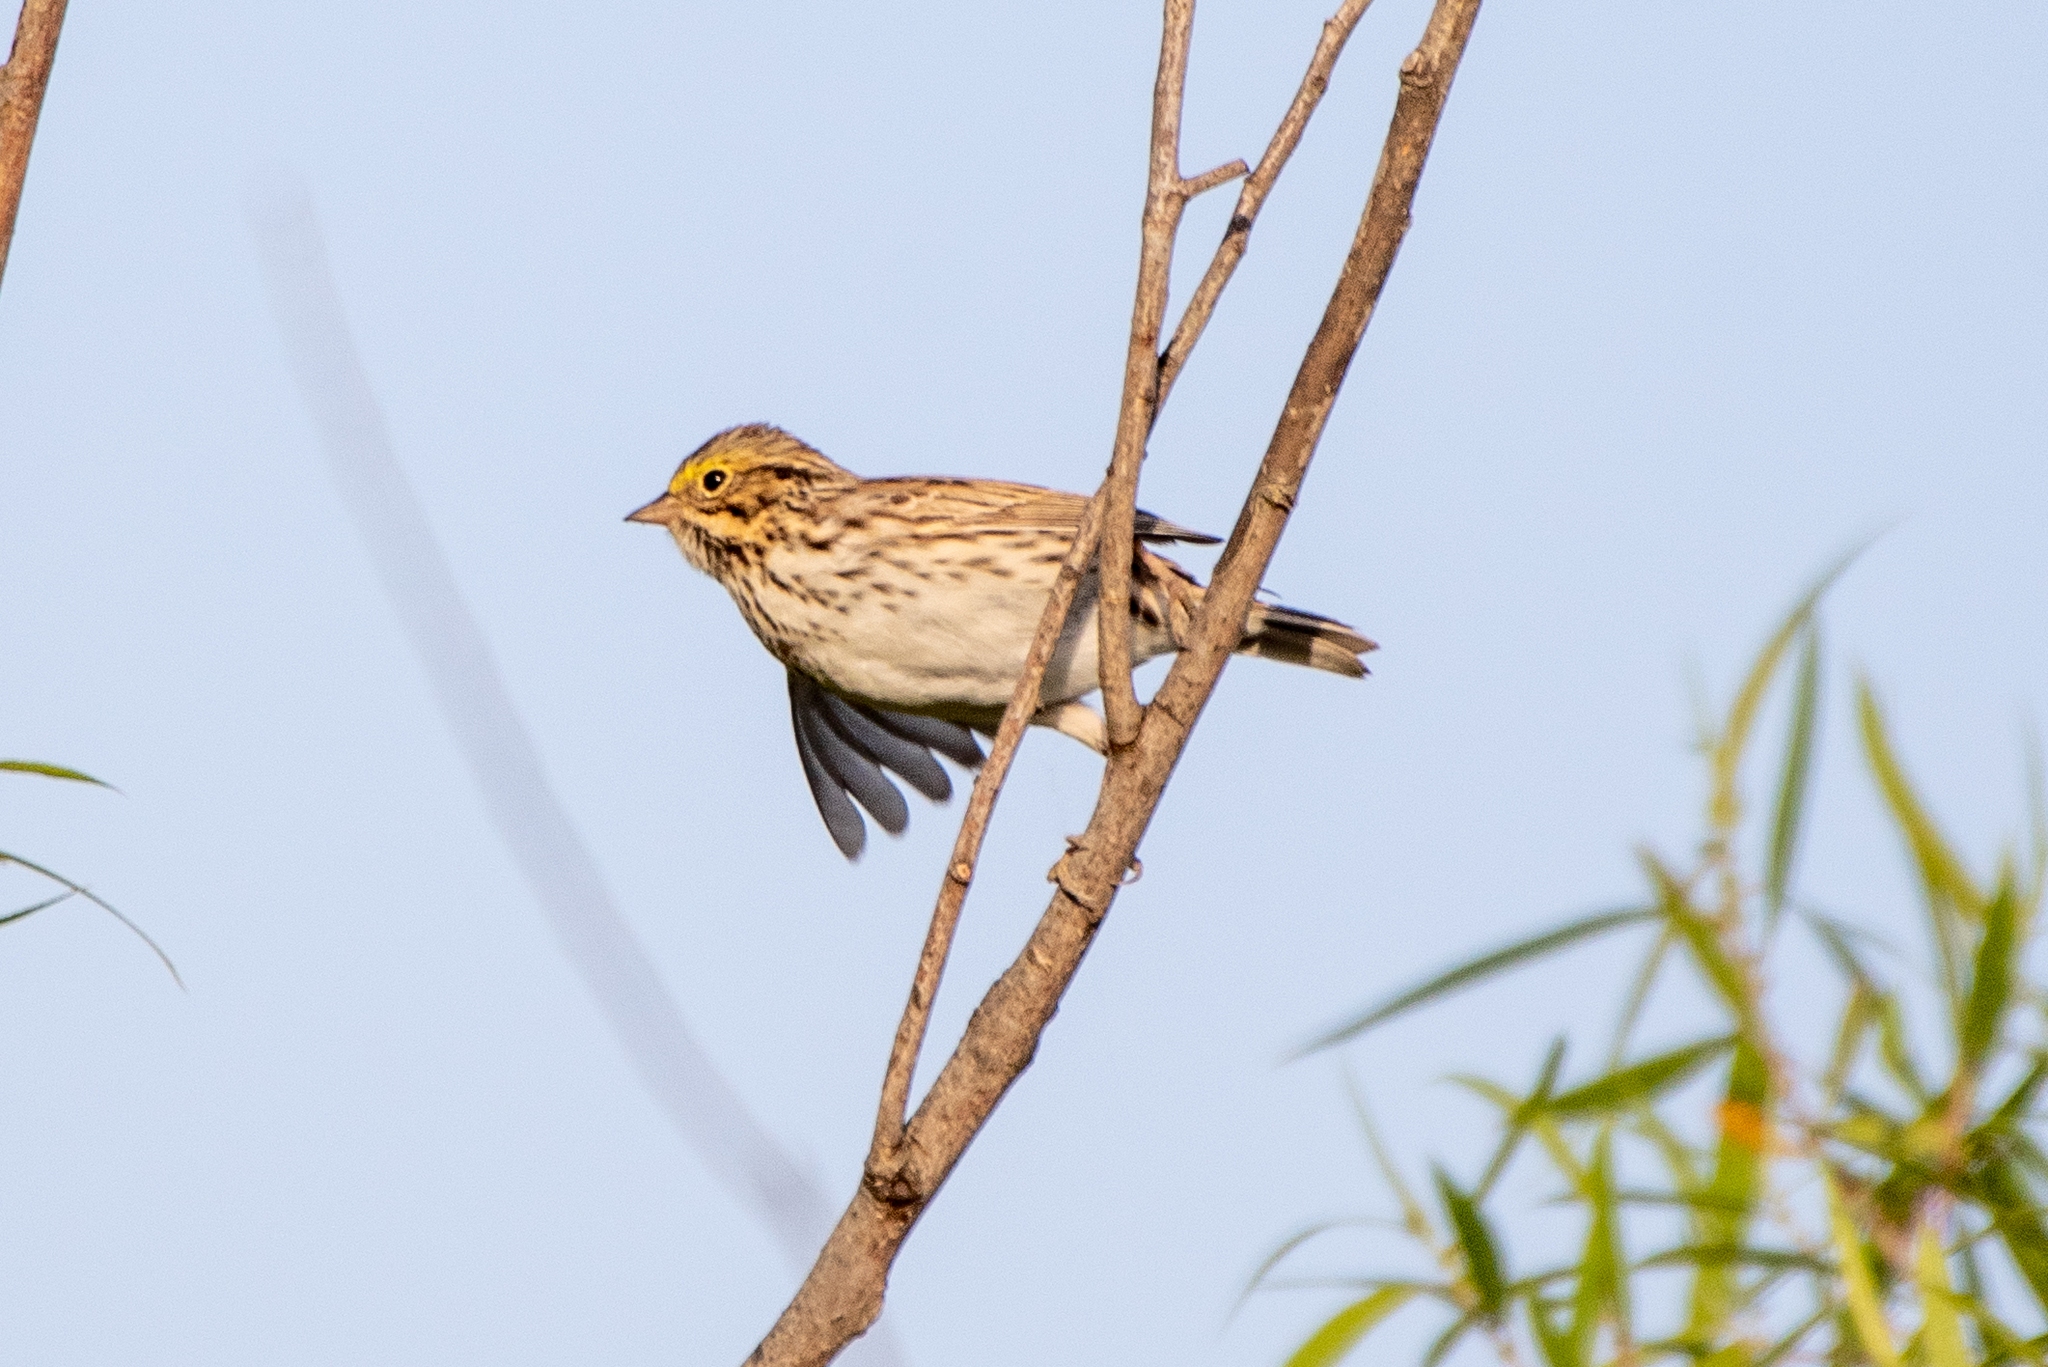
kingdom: Animalia
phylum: Chordata
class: Aves
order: Passeriformes
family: Passerellidae
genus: Passerculus
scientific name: Passerculus sandwichensis
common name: Savannah sparrow
